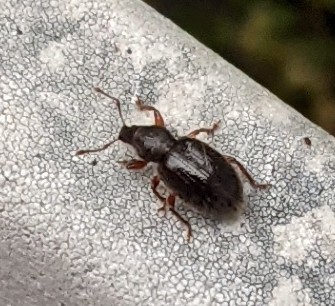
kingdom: Animalia
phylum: Arthropoda
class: Insecta
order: Coleoptera
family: Curculionidae
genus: Exomias
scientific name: Exomias pellucidus
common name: Hairy spider weevil
